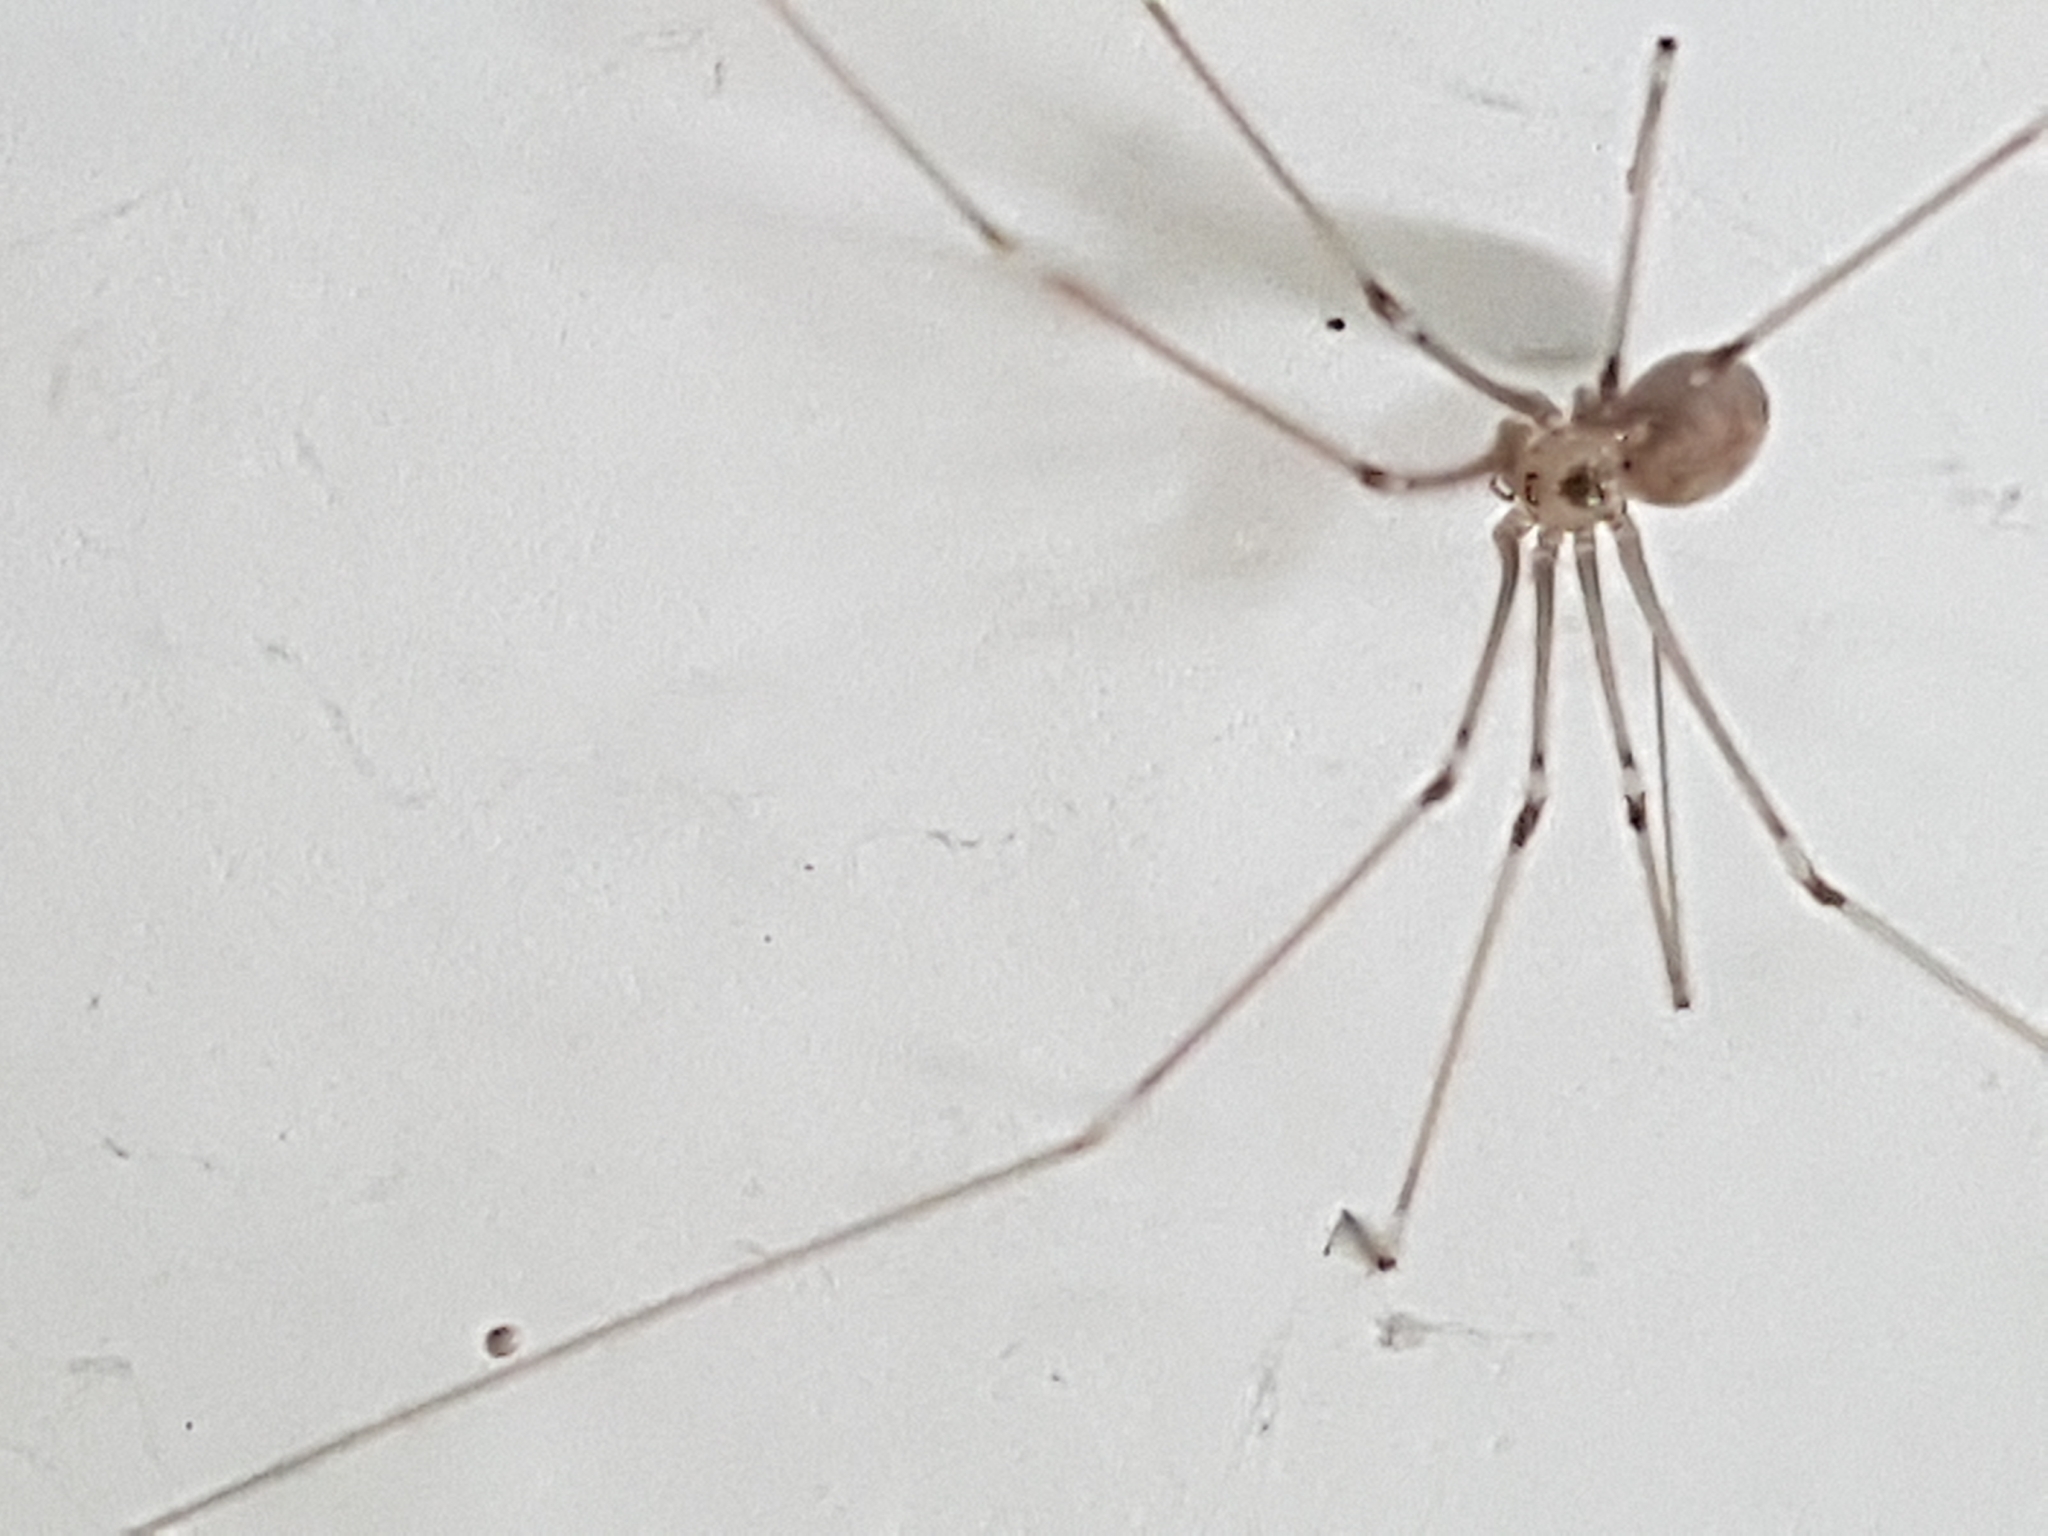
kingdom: Animalia
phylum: Arthropoda
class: Arachnida
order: Araneae
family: Pholcidae
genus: Pholcus
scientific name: Pholcus phalangioides
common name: Longbodied cellar spider
